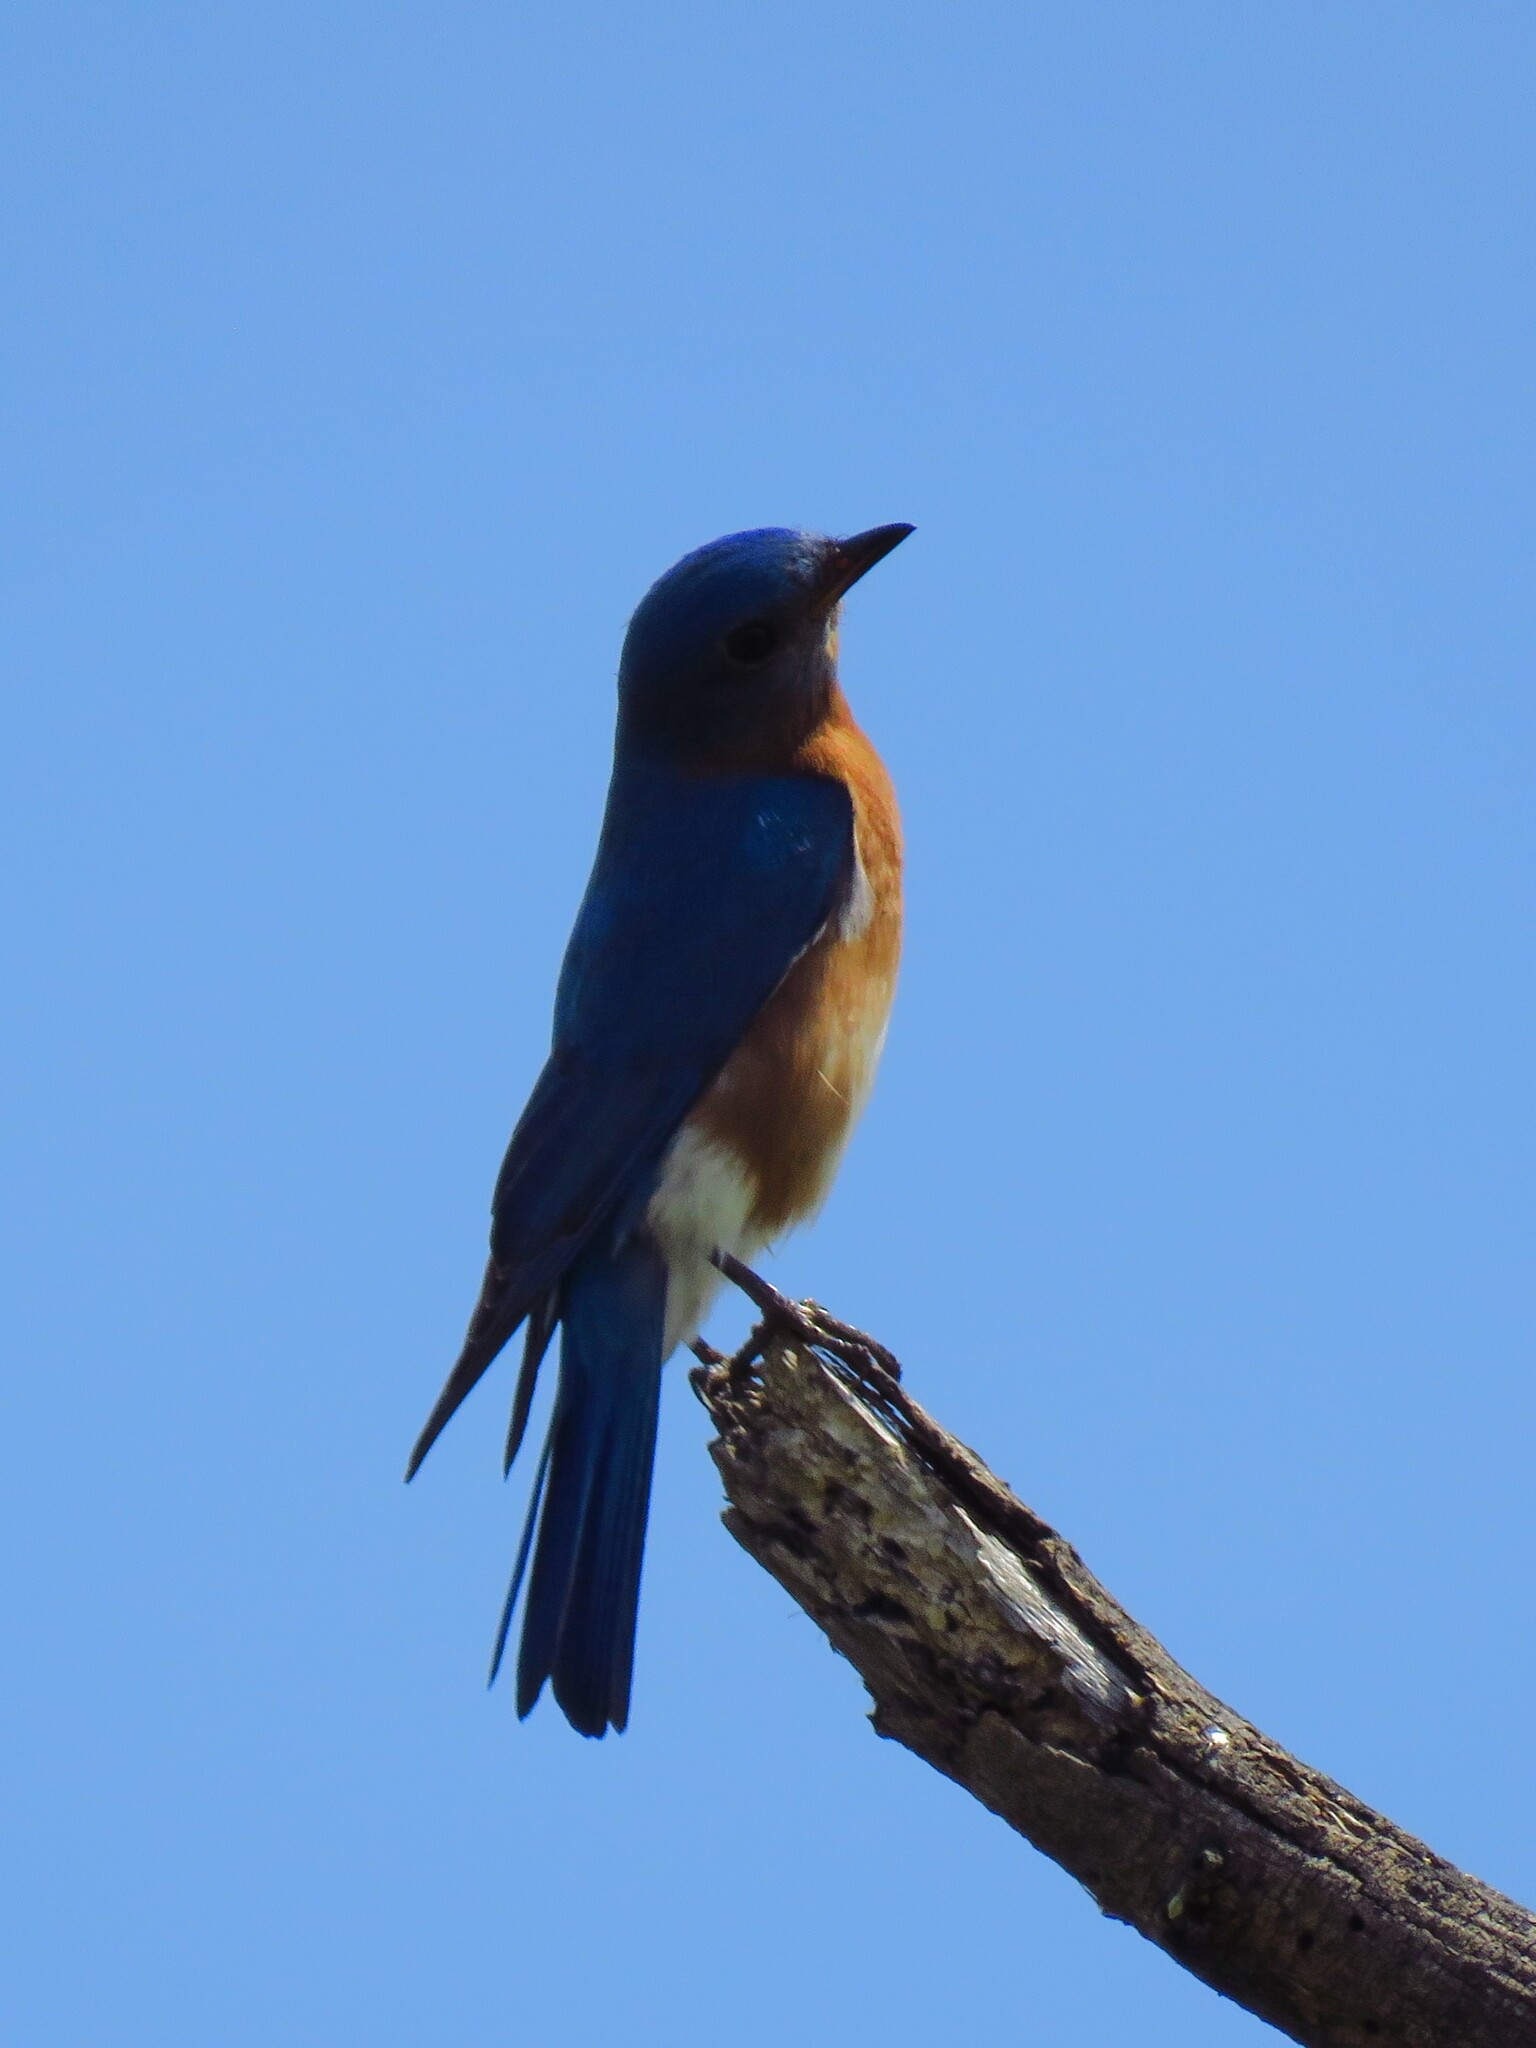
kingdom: Animalia
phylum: Chordata
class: Aves
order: Passeriformes
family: Turdidae
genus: Sialia
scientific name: Sialia sialis
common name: Eastern bluebird
